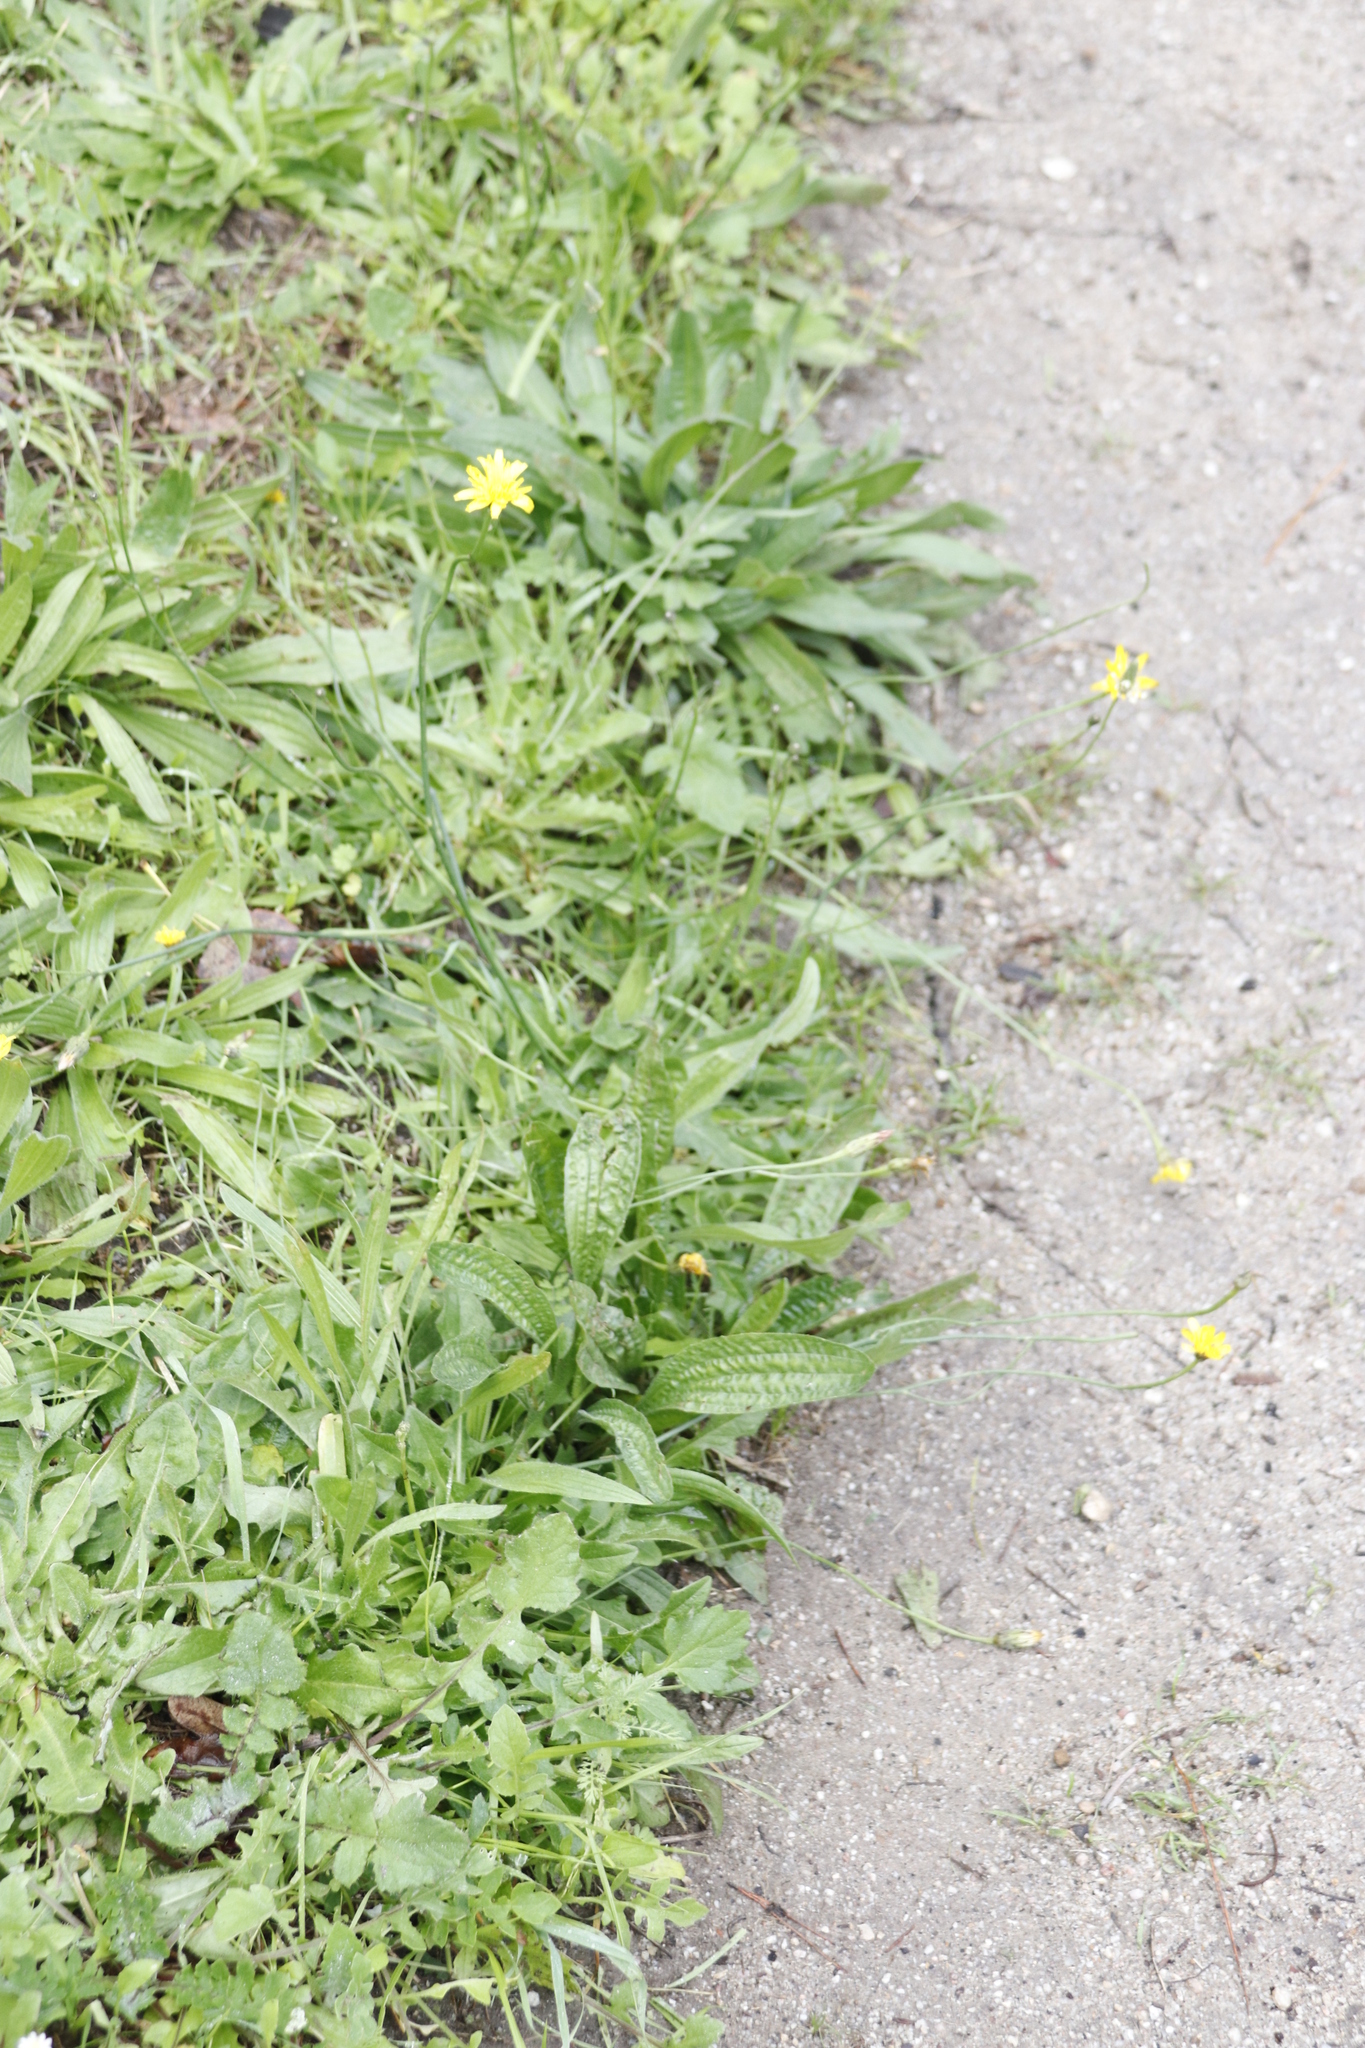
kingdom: Plantae
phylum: Tracheophyta
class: Magnoliopsida
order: Asterales
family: Asteraceae
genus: Hypochaeris
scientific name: Hypochaeris radicata
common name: Flatweed
